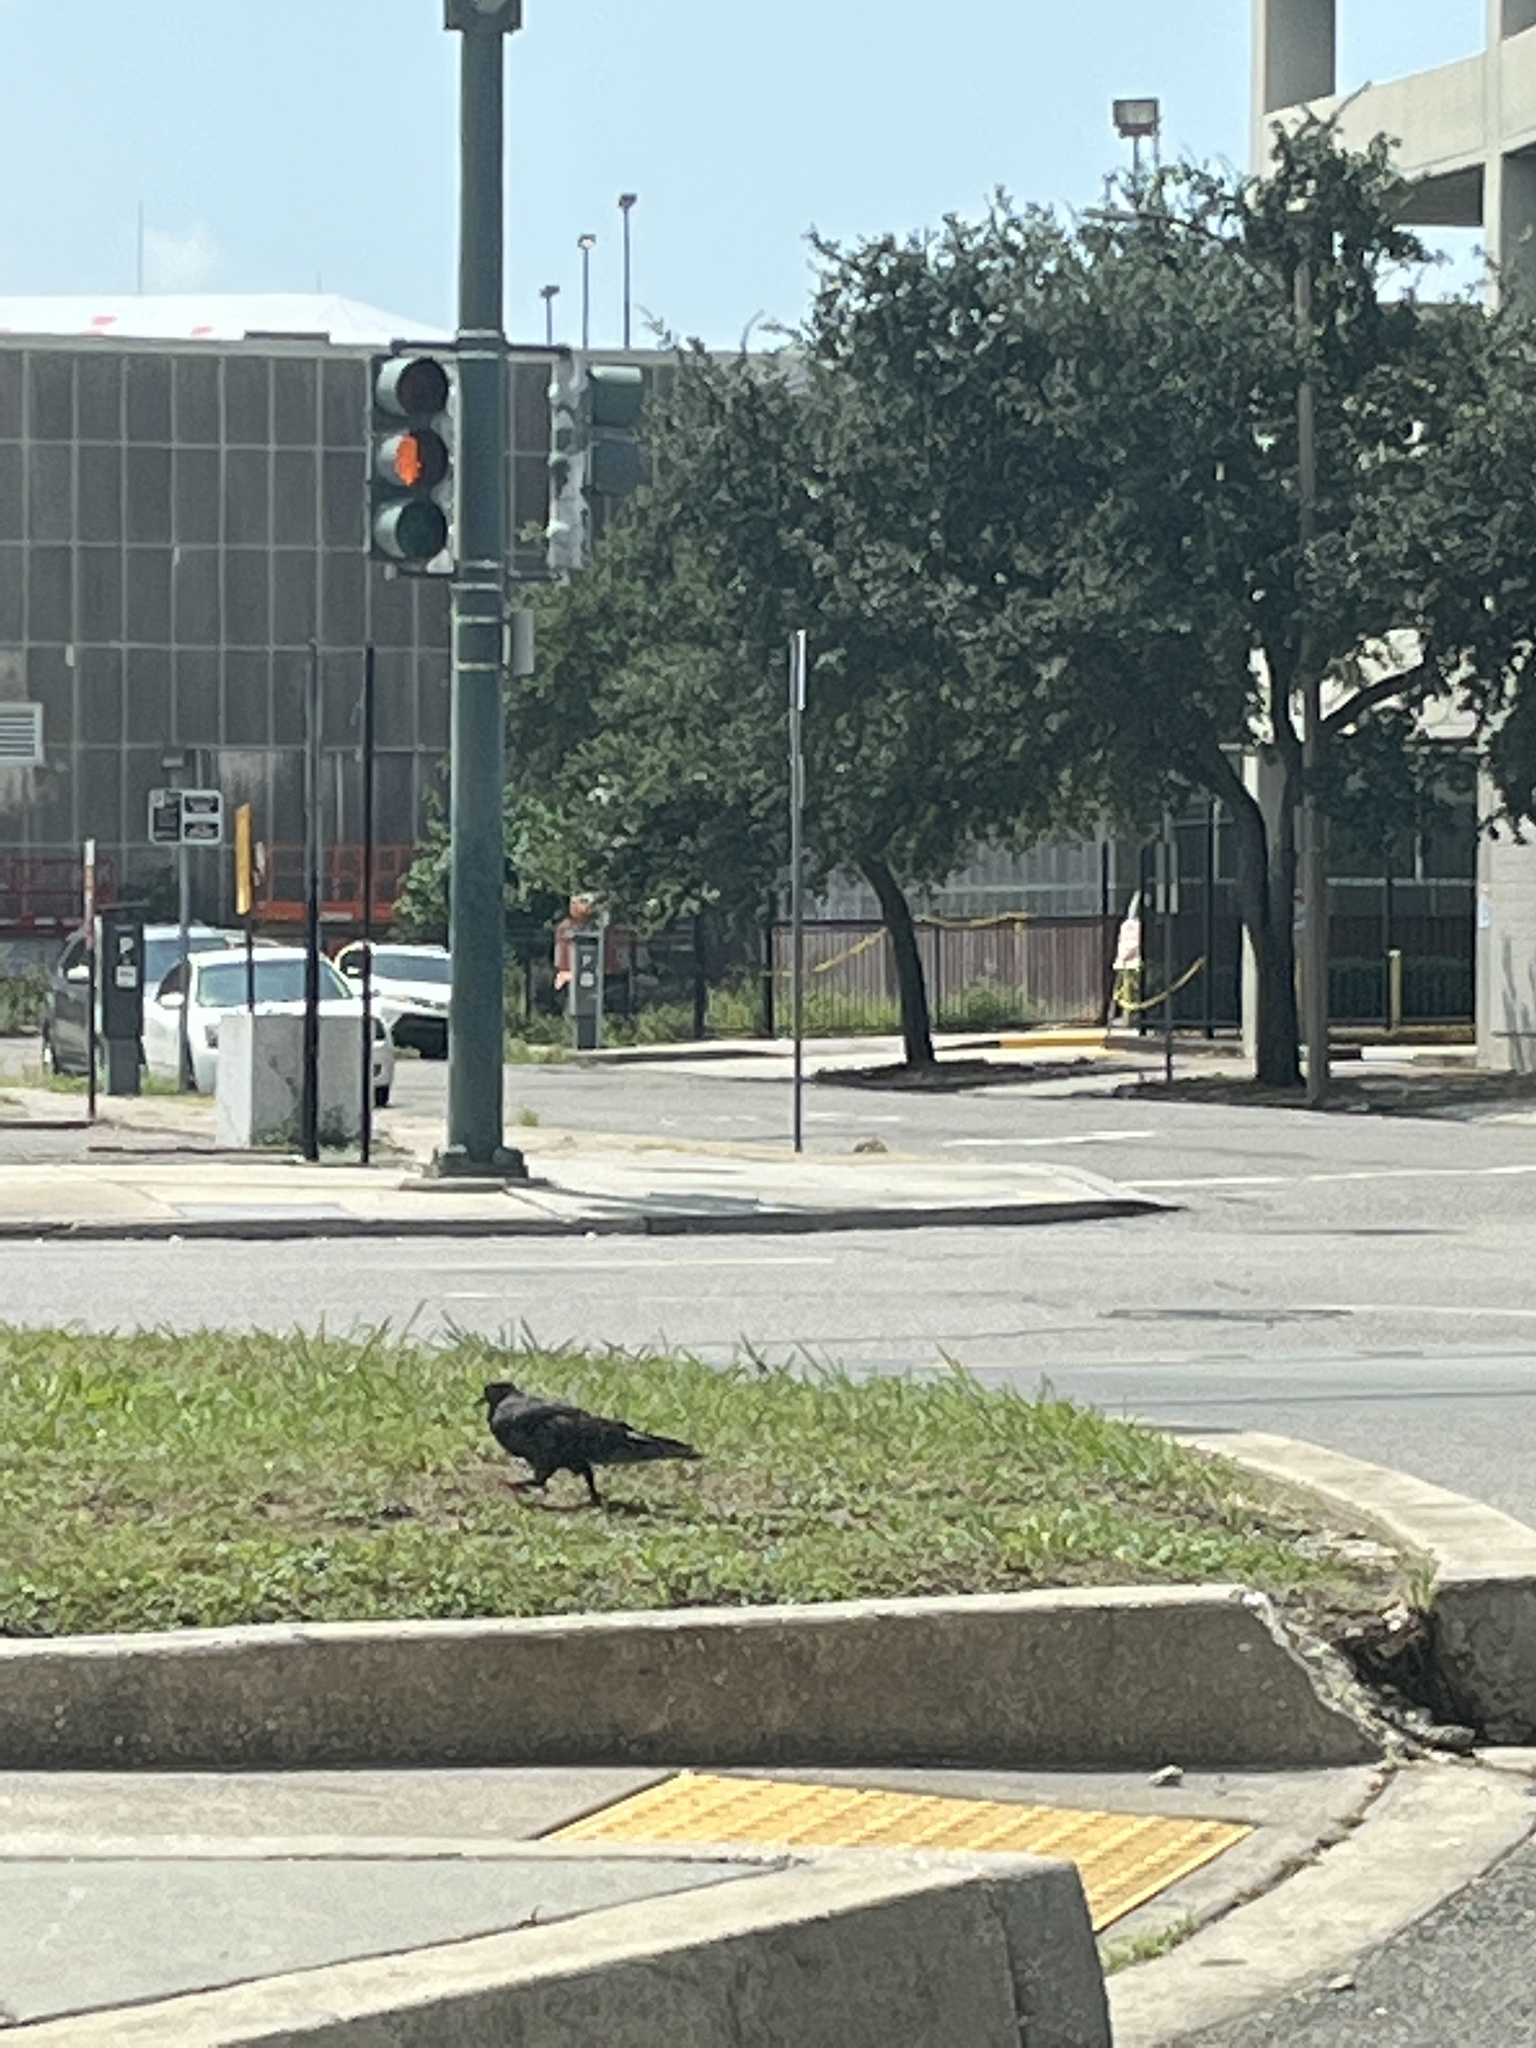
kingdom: Animalia
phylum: Chordata
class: Aves
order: Columbiformes
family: Columbidae
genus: Columba
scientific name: Columba livia
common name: Rock pigeon
